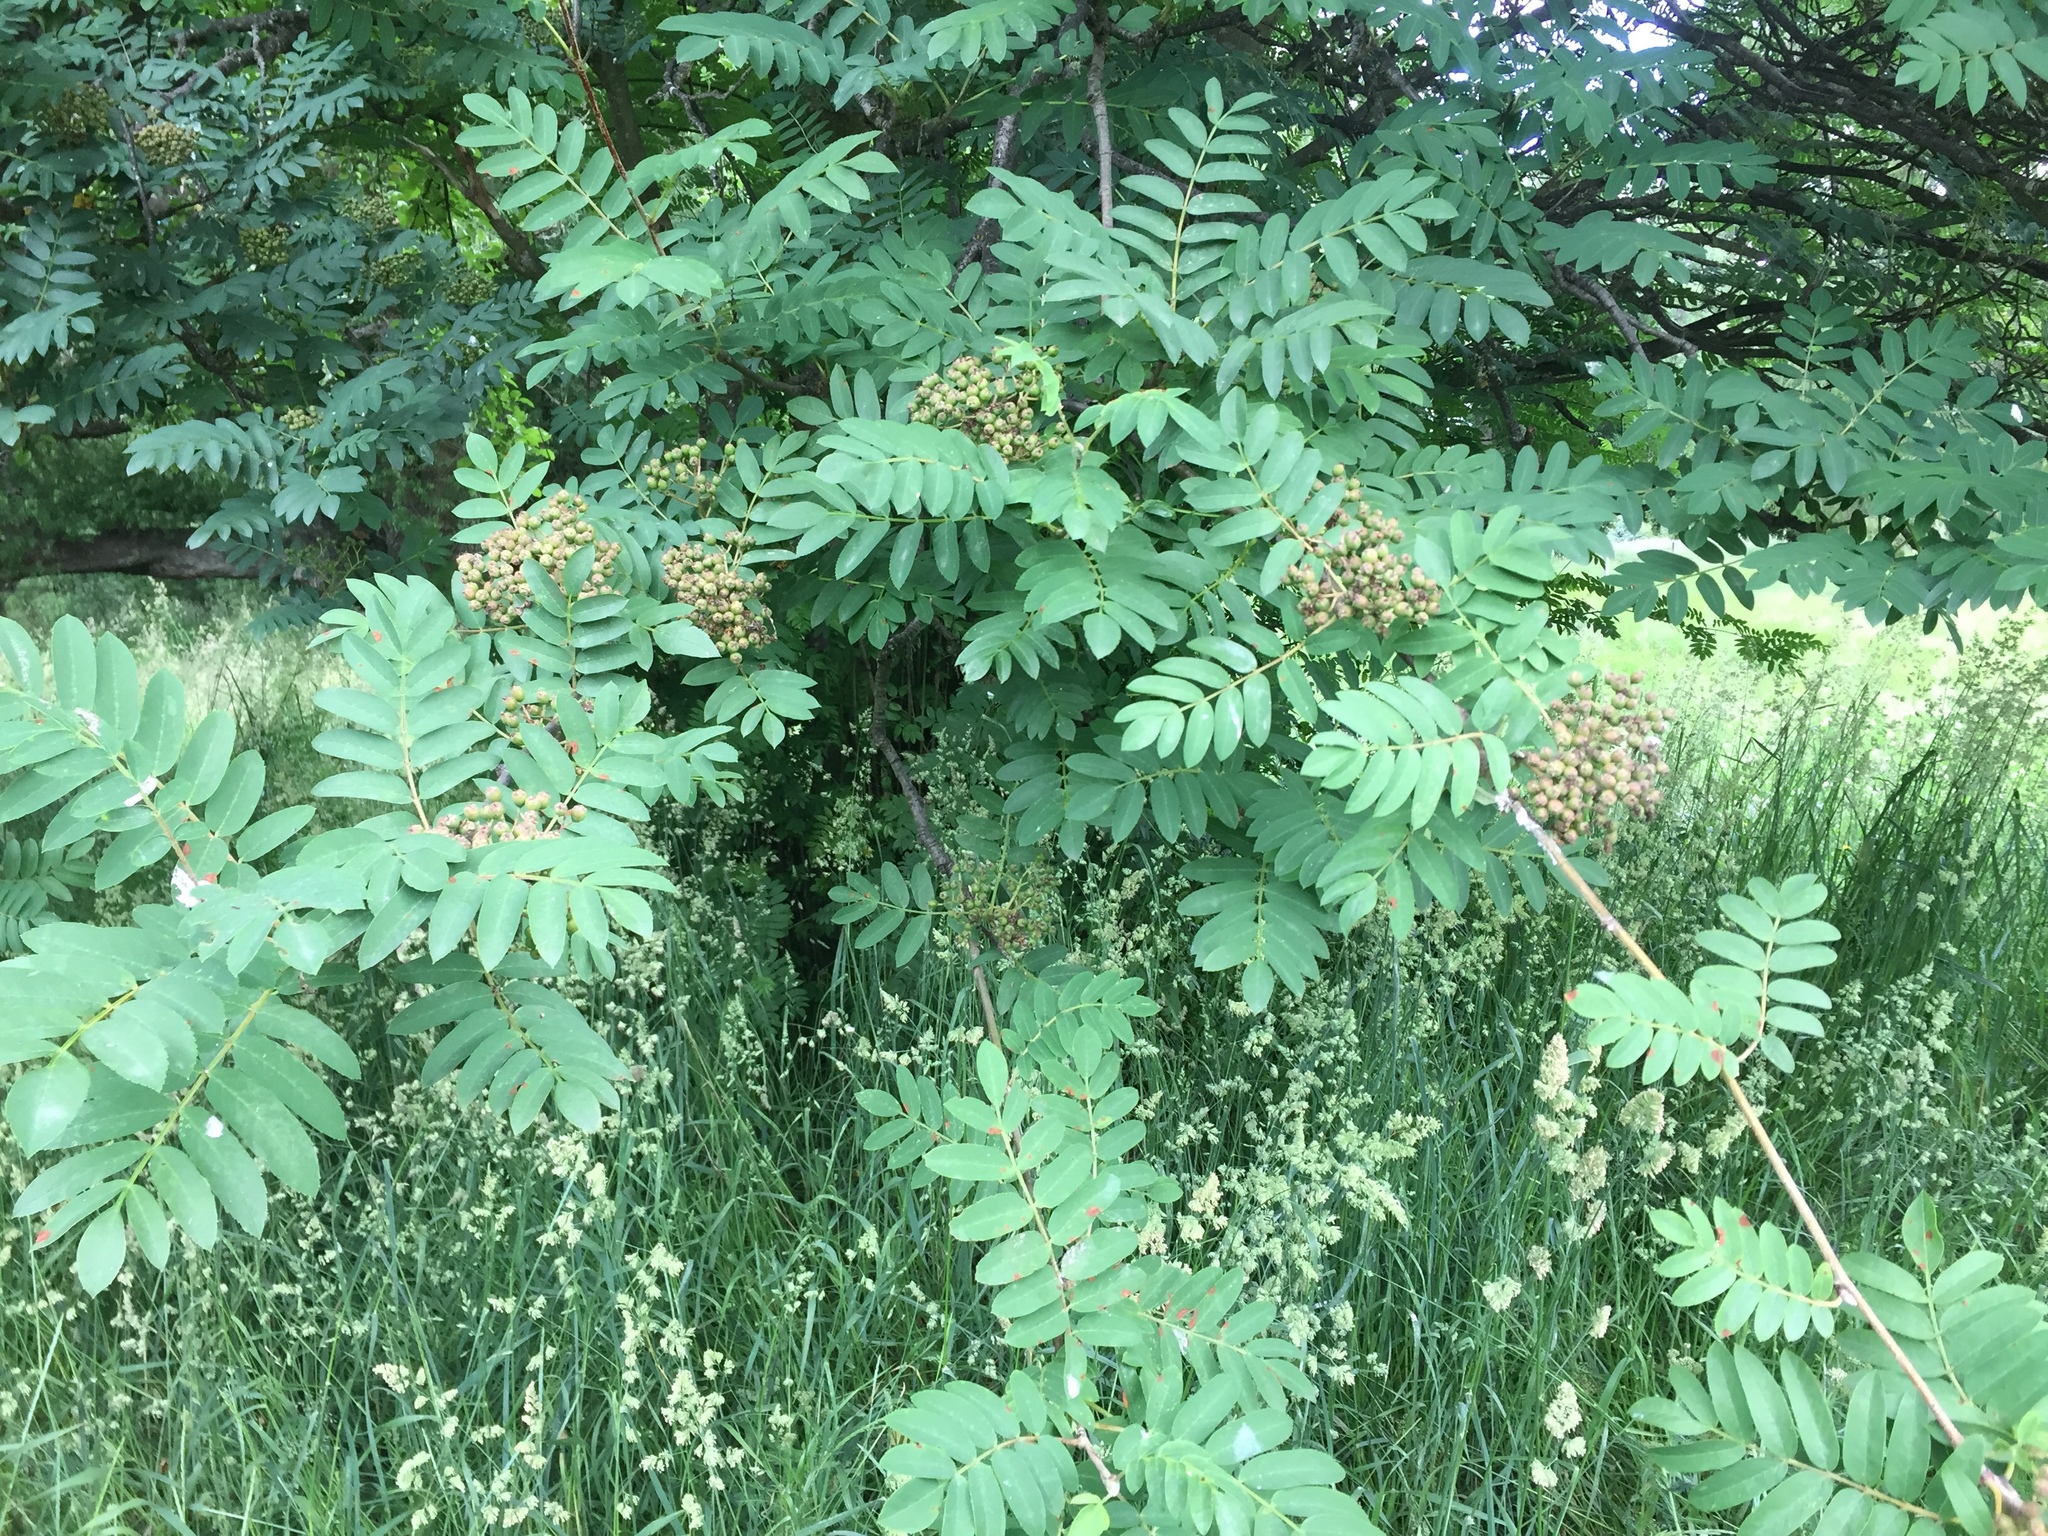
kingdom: Plantae
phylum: Tracheophyta
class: Magnoliopsida
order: Rosales
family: Rosaceae
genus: Sorbus
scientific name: Sorbus aucuparia
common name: Rowan
